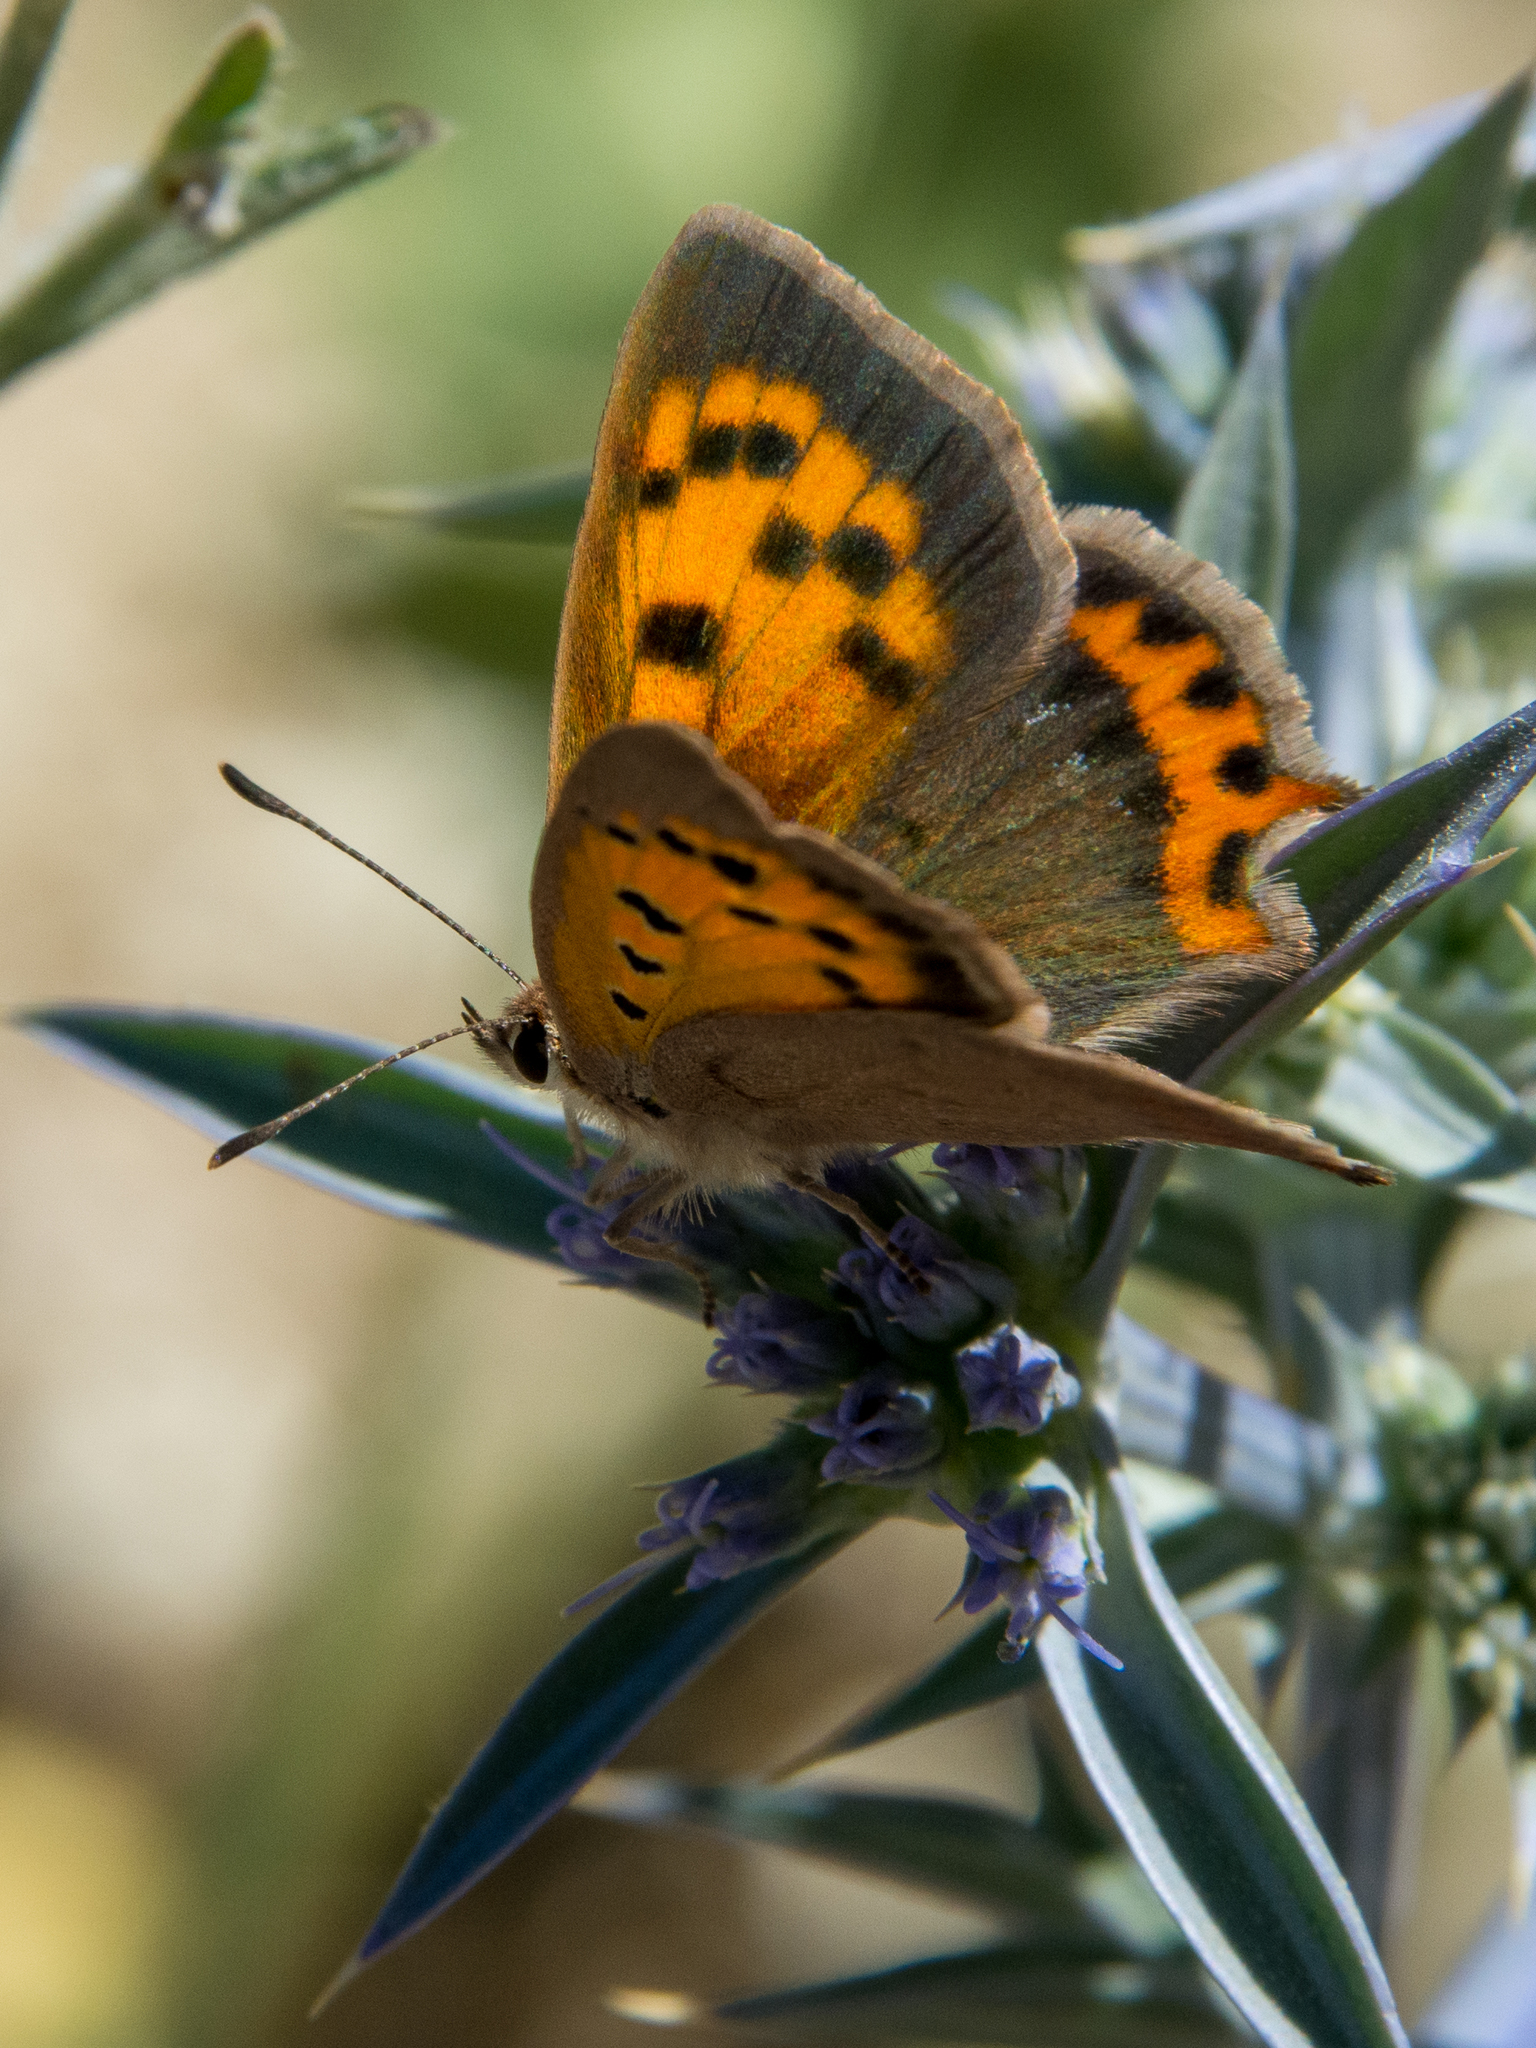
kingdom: Animalia
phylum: Arthropoda
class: Insecta
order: Lepidoptera
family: Lycaenidae
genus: Lycaena
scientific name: Lycaena phlaeas
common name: Small copper
